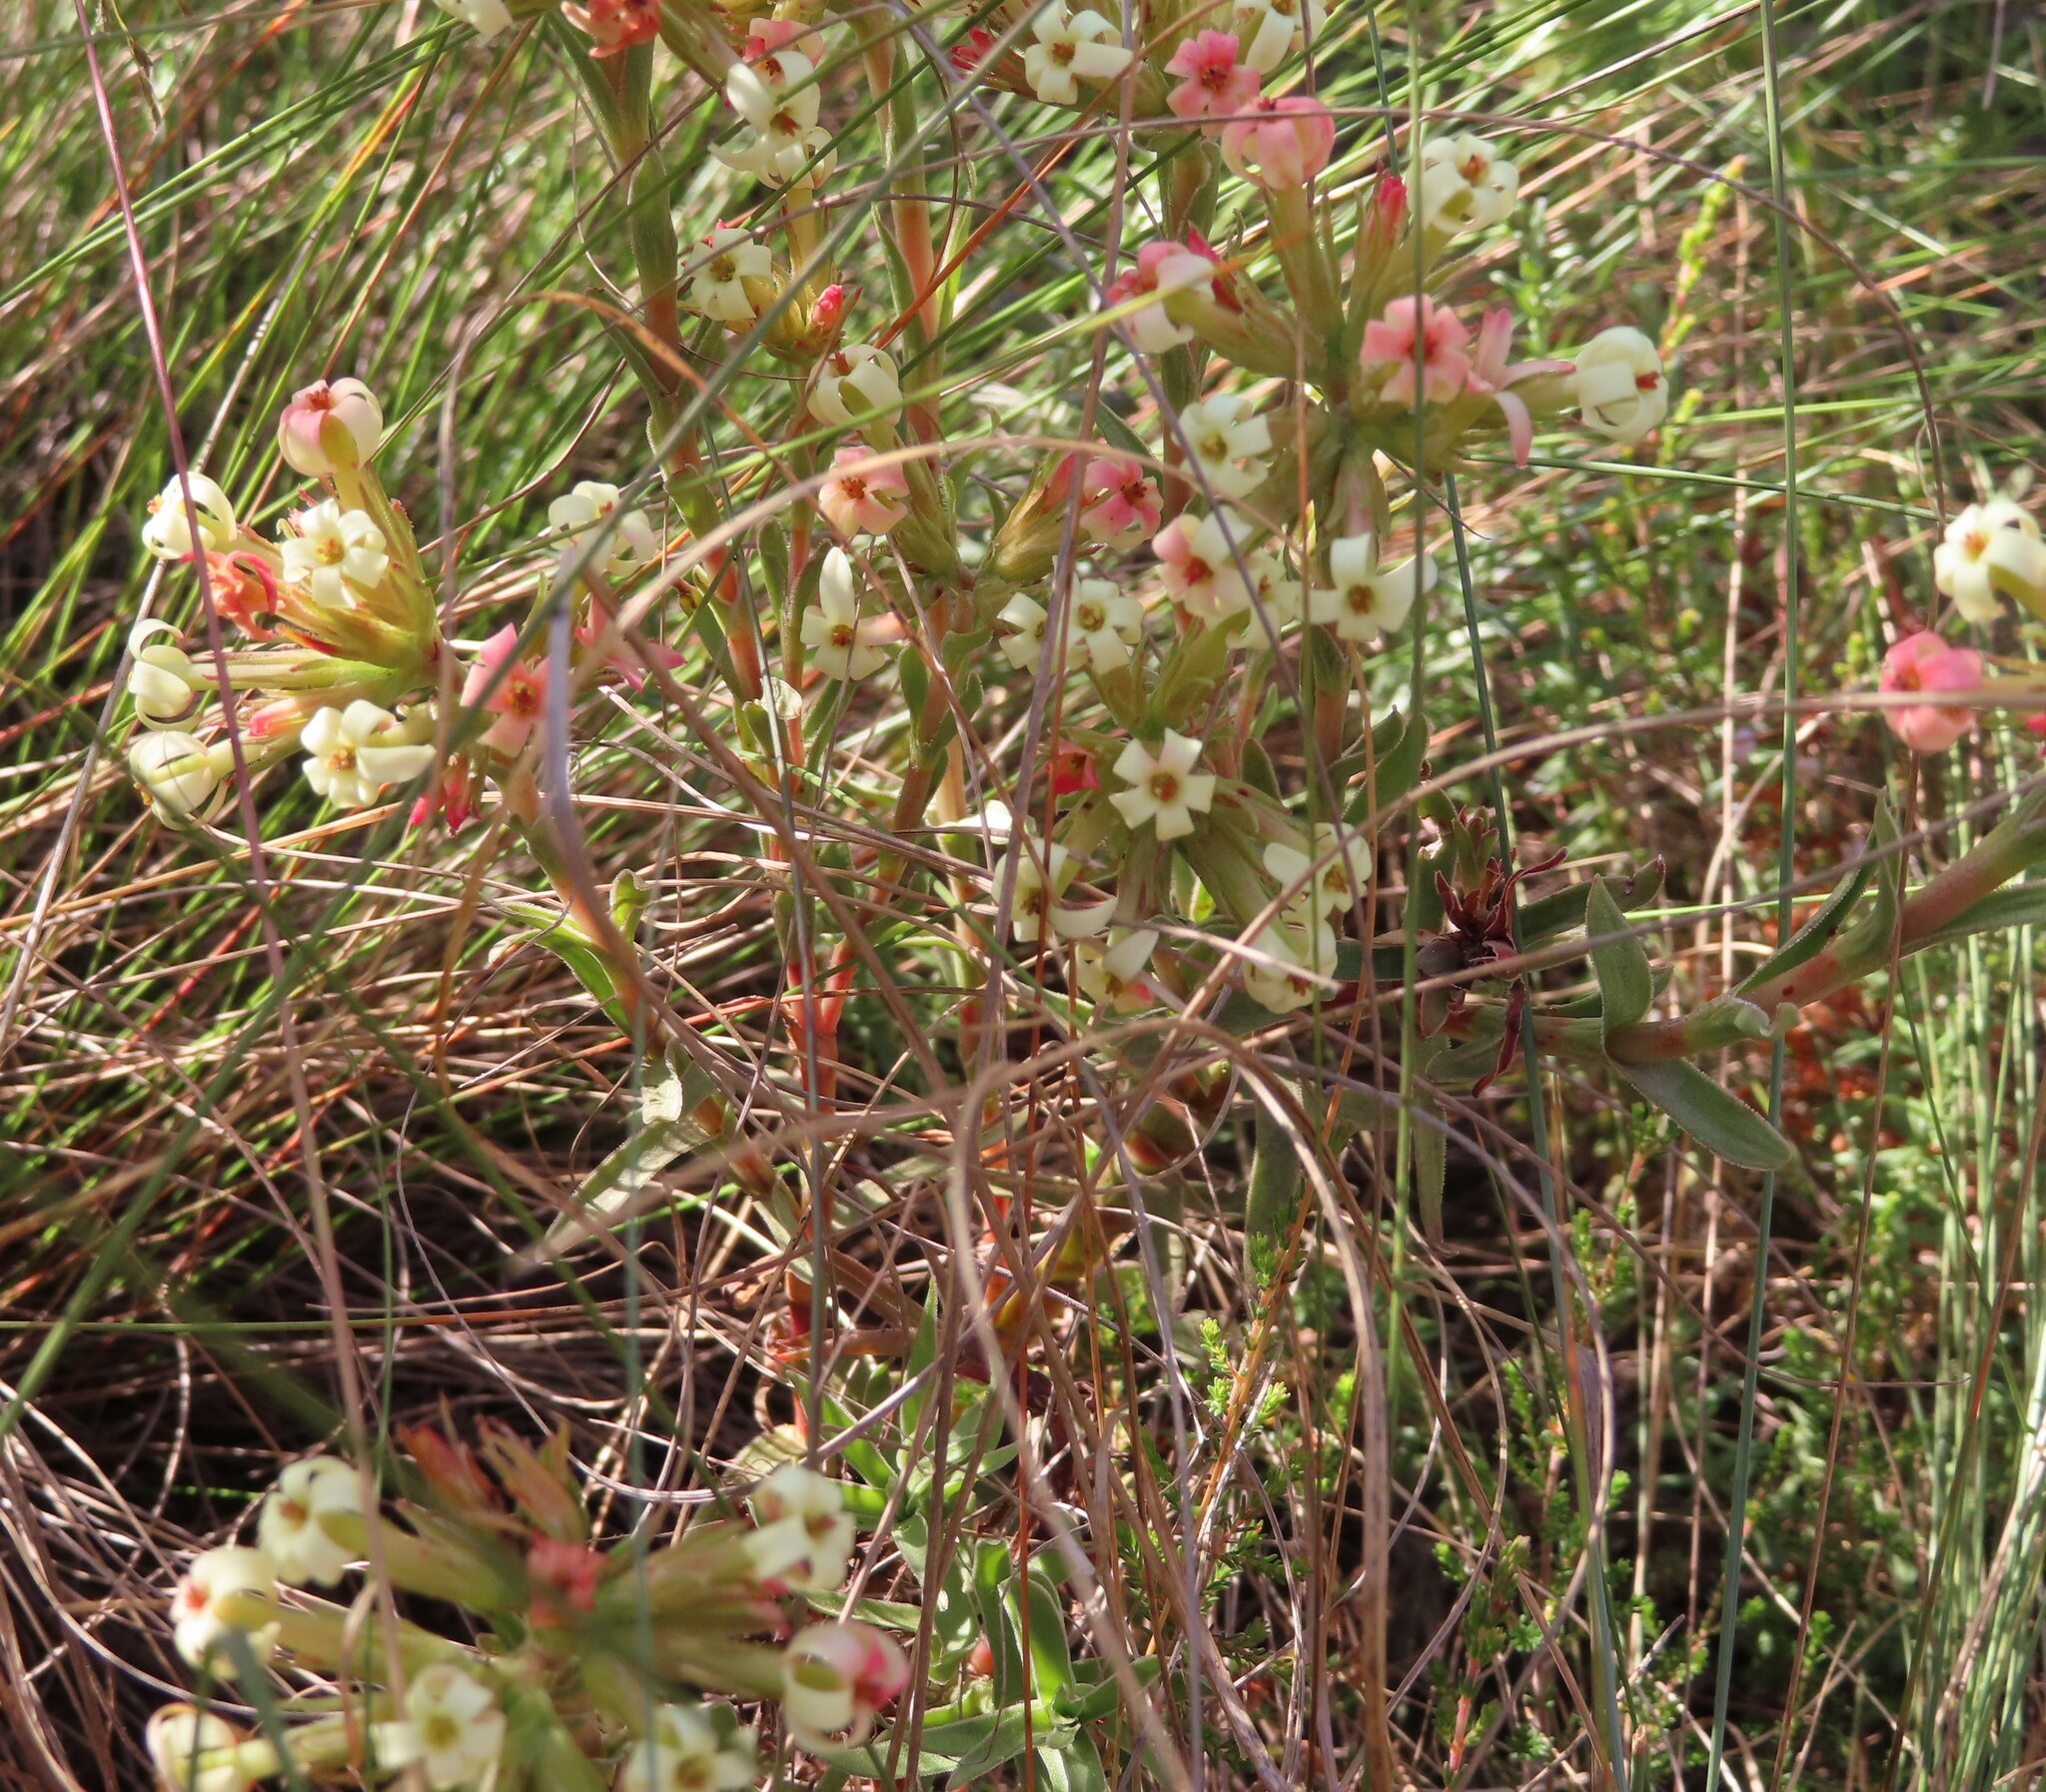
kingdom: Plantae
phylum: Tracheophyta
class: Magnoliopsida
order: Saxifragales
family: Crassulaceae
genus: Crassula
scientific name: Crassula fascicularis
